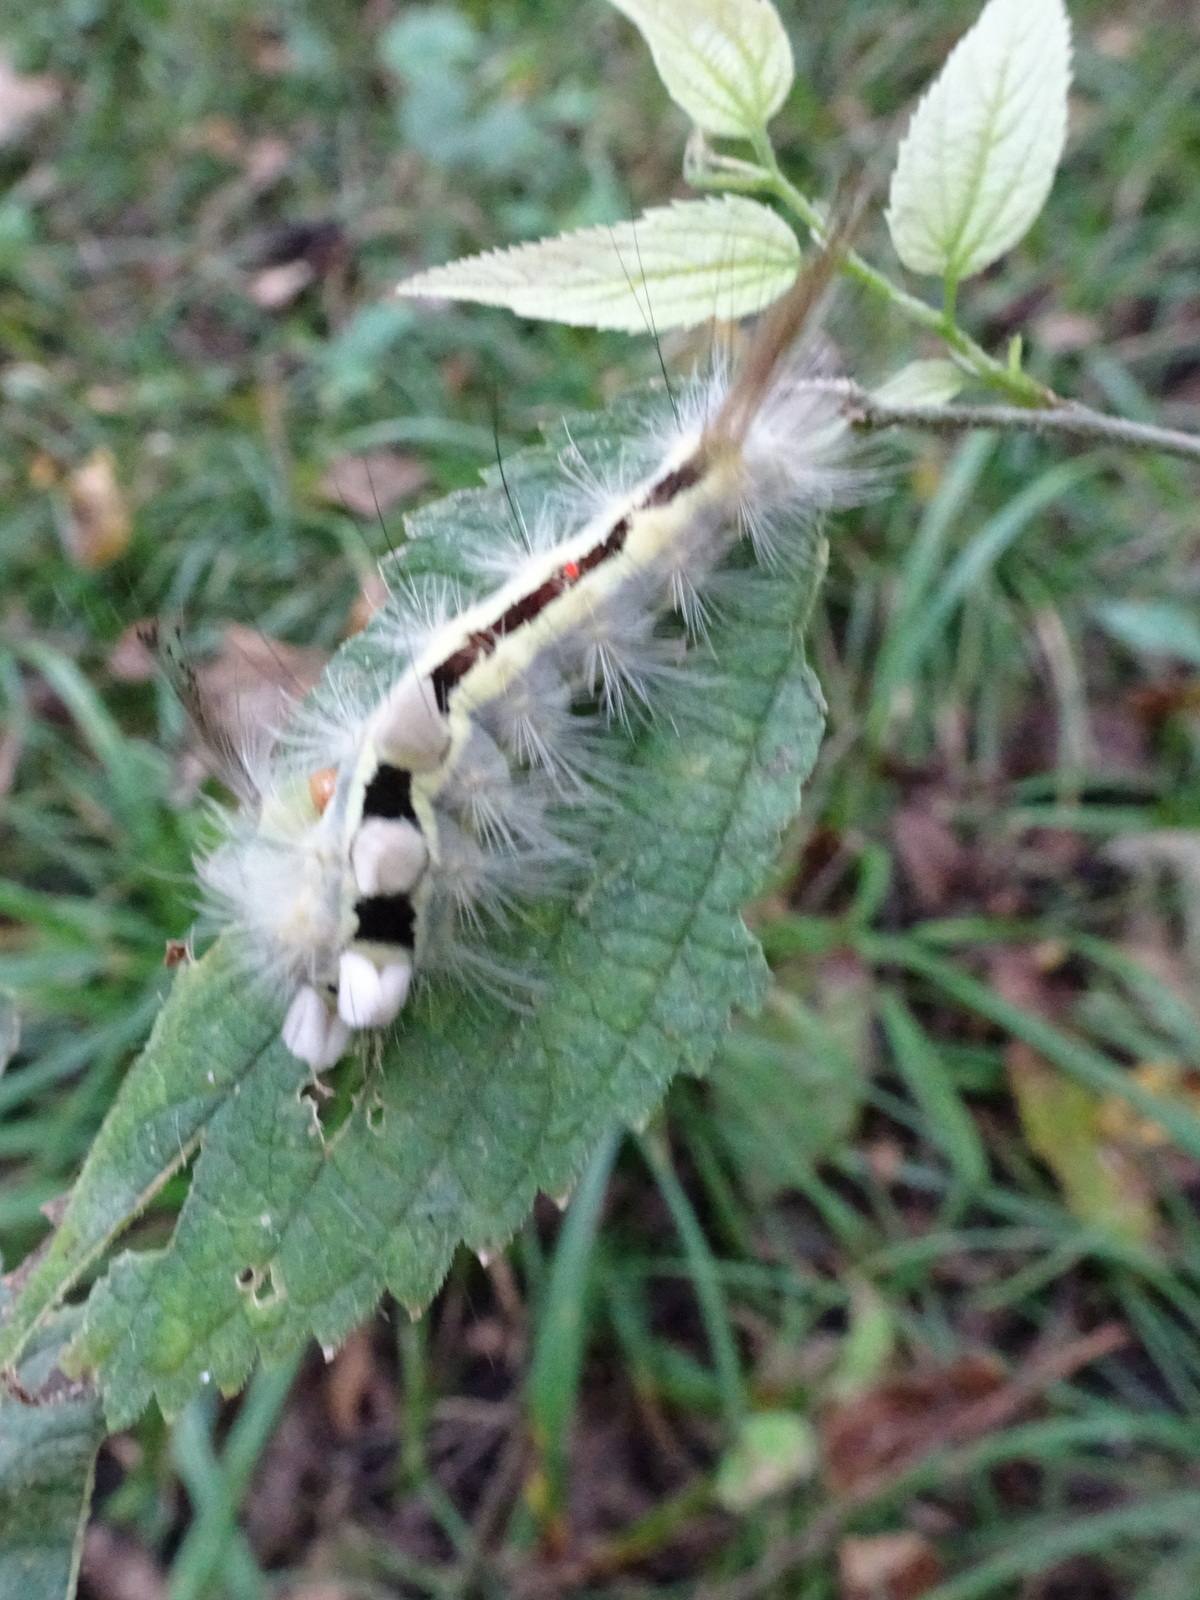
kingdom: Animalia
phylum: Arthropoda
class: Insecta
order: Lepidoptera
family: Erebidae
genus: Orgyia
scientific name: Orgyia leucostigma
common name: White-marked tussock moth
